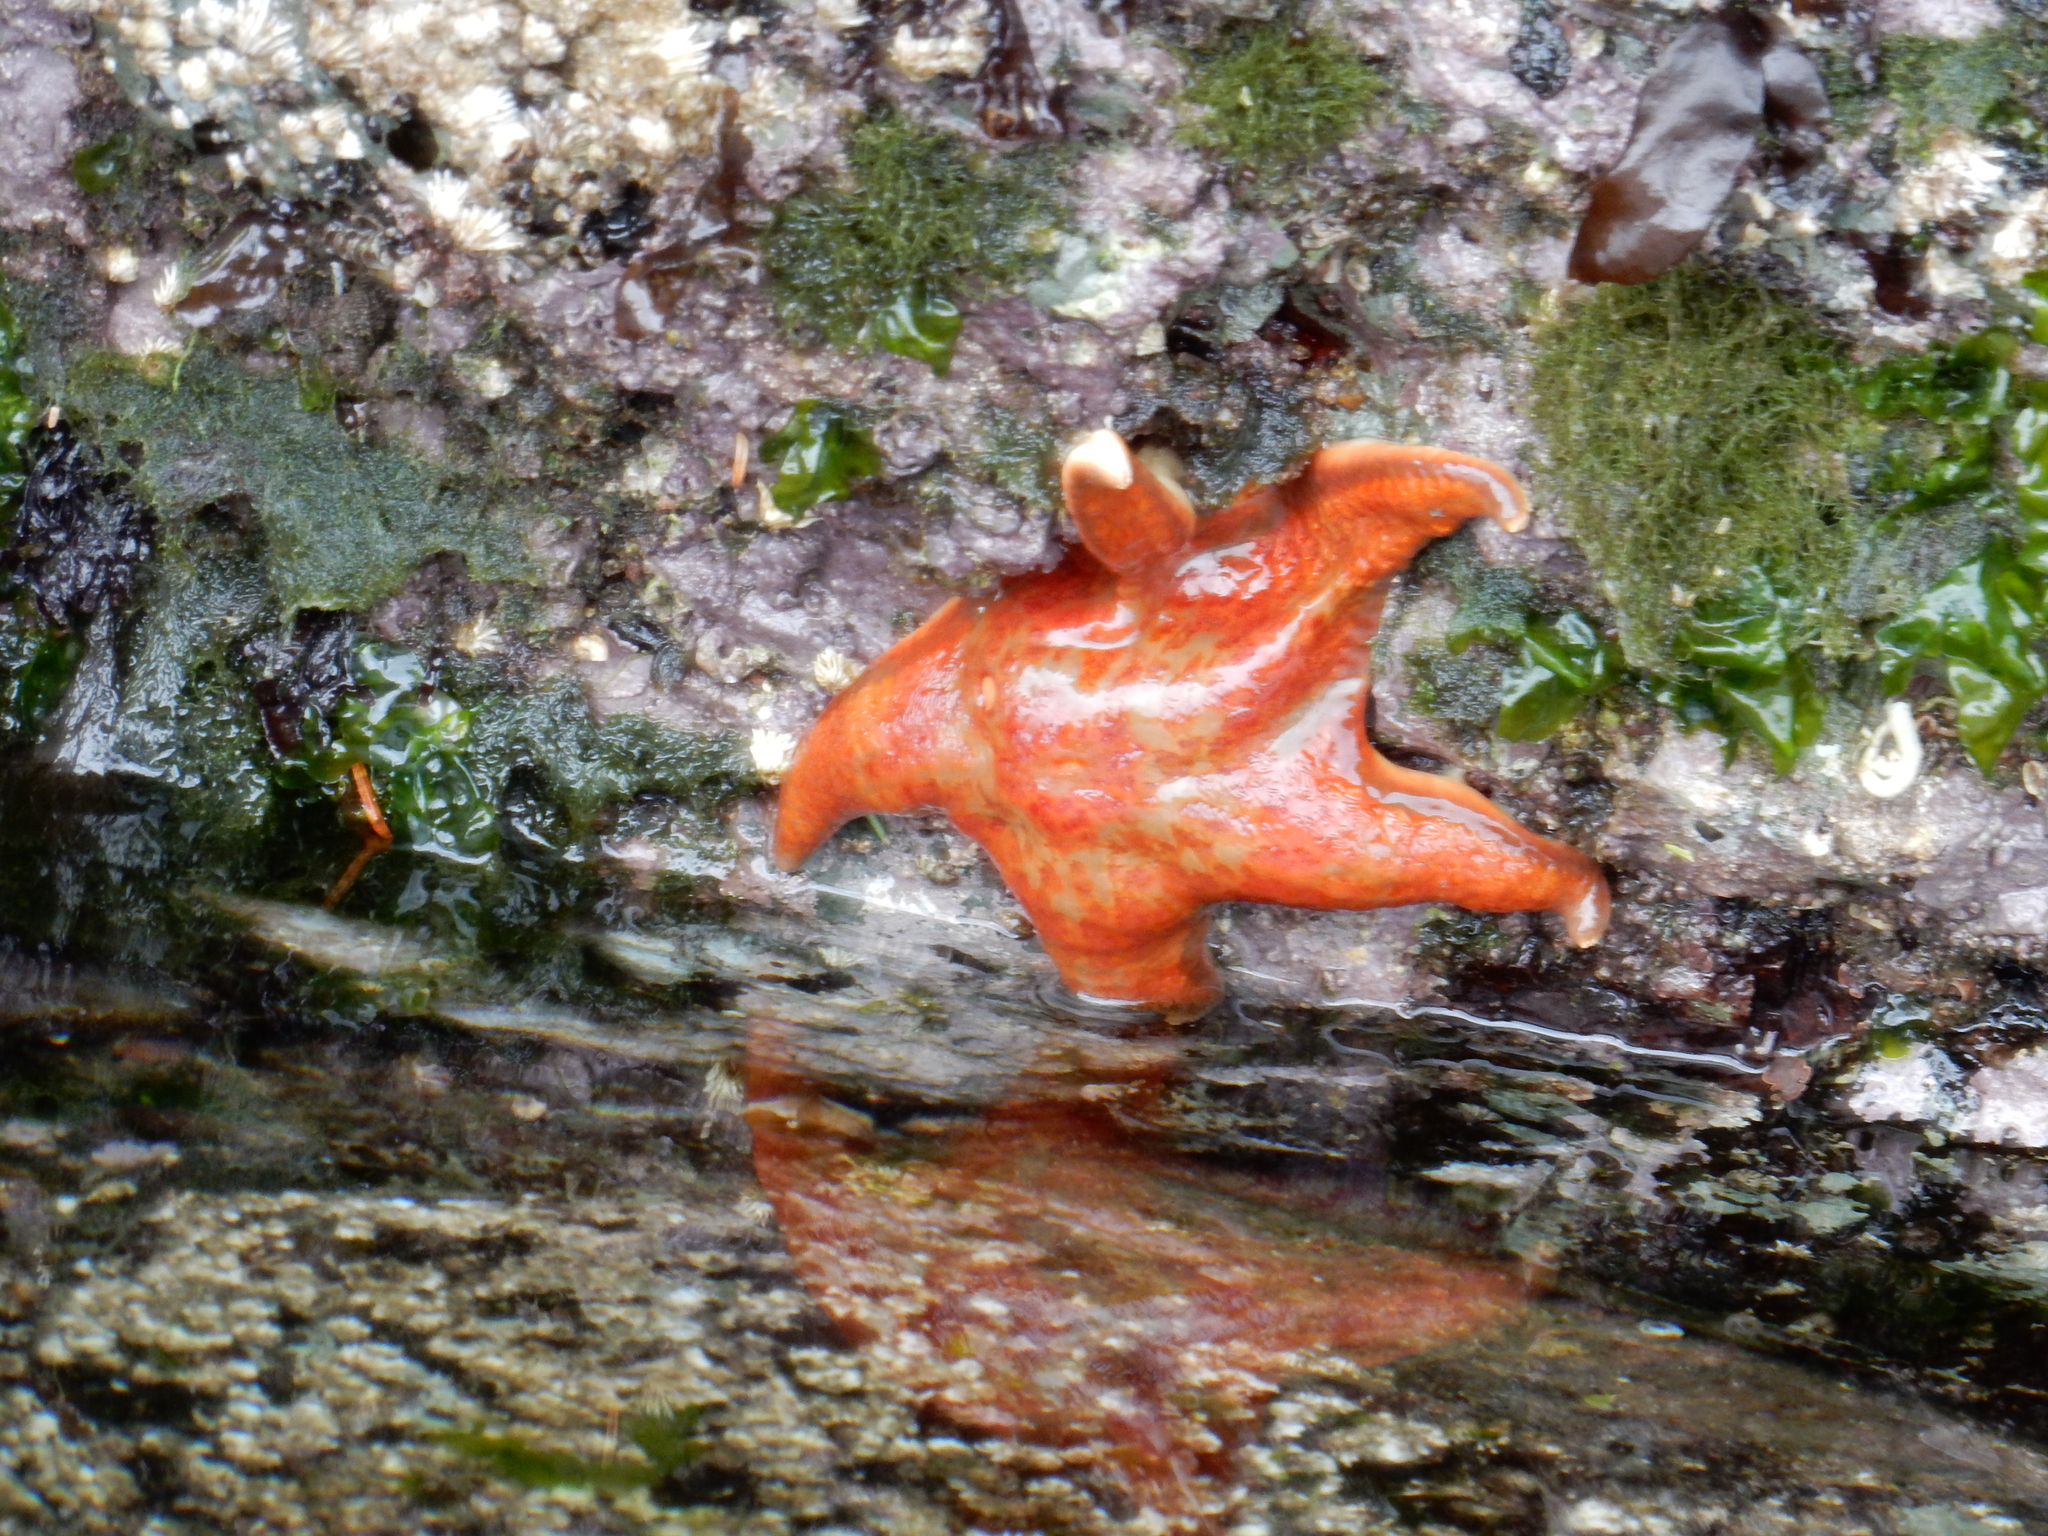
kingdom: Animalia
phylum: Echinodermata
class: Asteroidea
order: Valvatida
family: Asteropseidae
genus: Dermasterias
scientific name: Dermasterias imbricata
